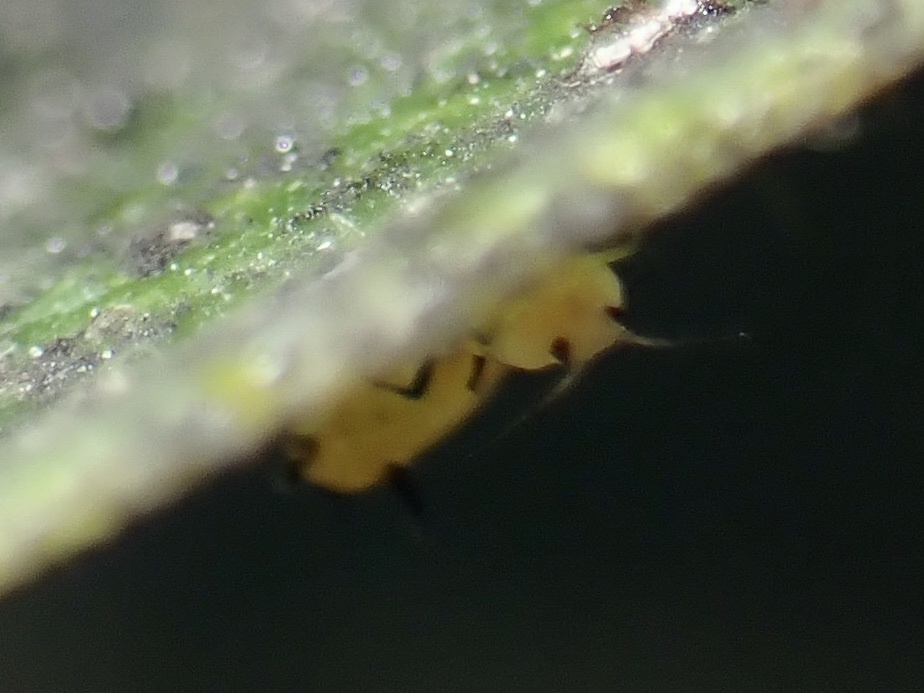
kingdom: Animalia
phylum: Arthropoda
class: Insecta
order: Hemiptera
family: Aphididae
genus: Aphis
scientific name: Aphis nerii
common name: Oleander aphid
